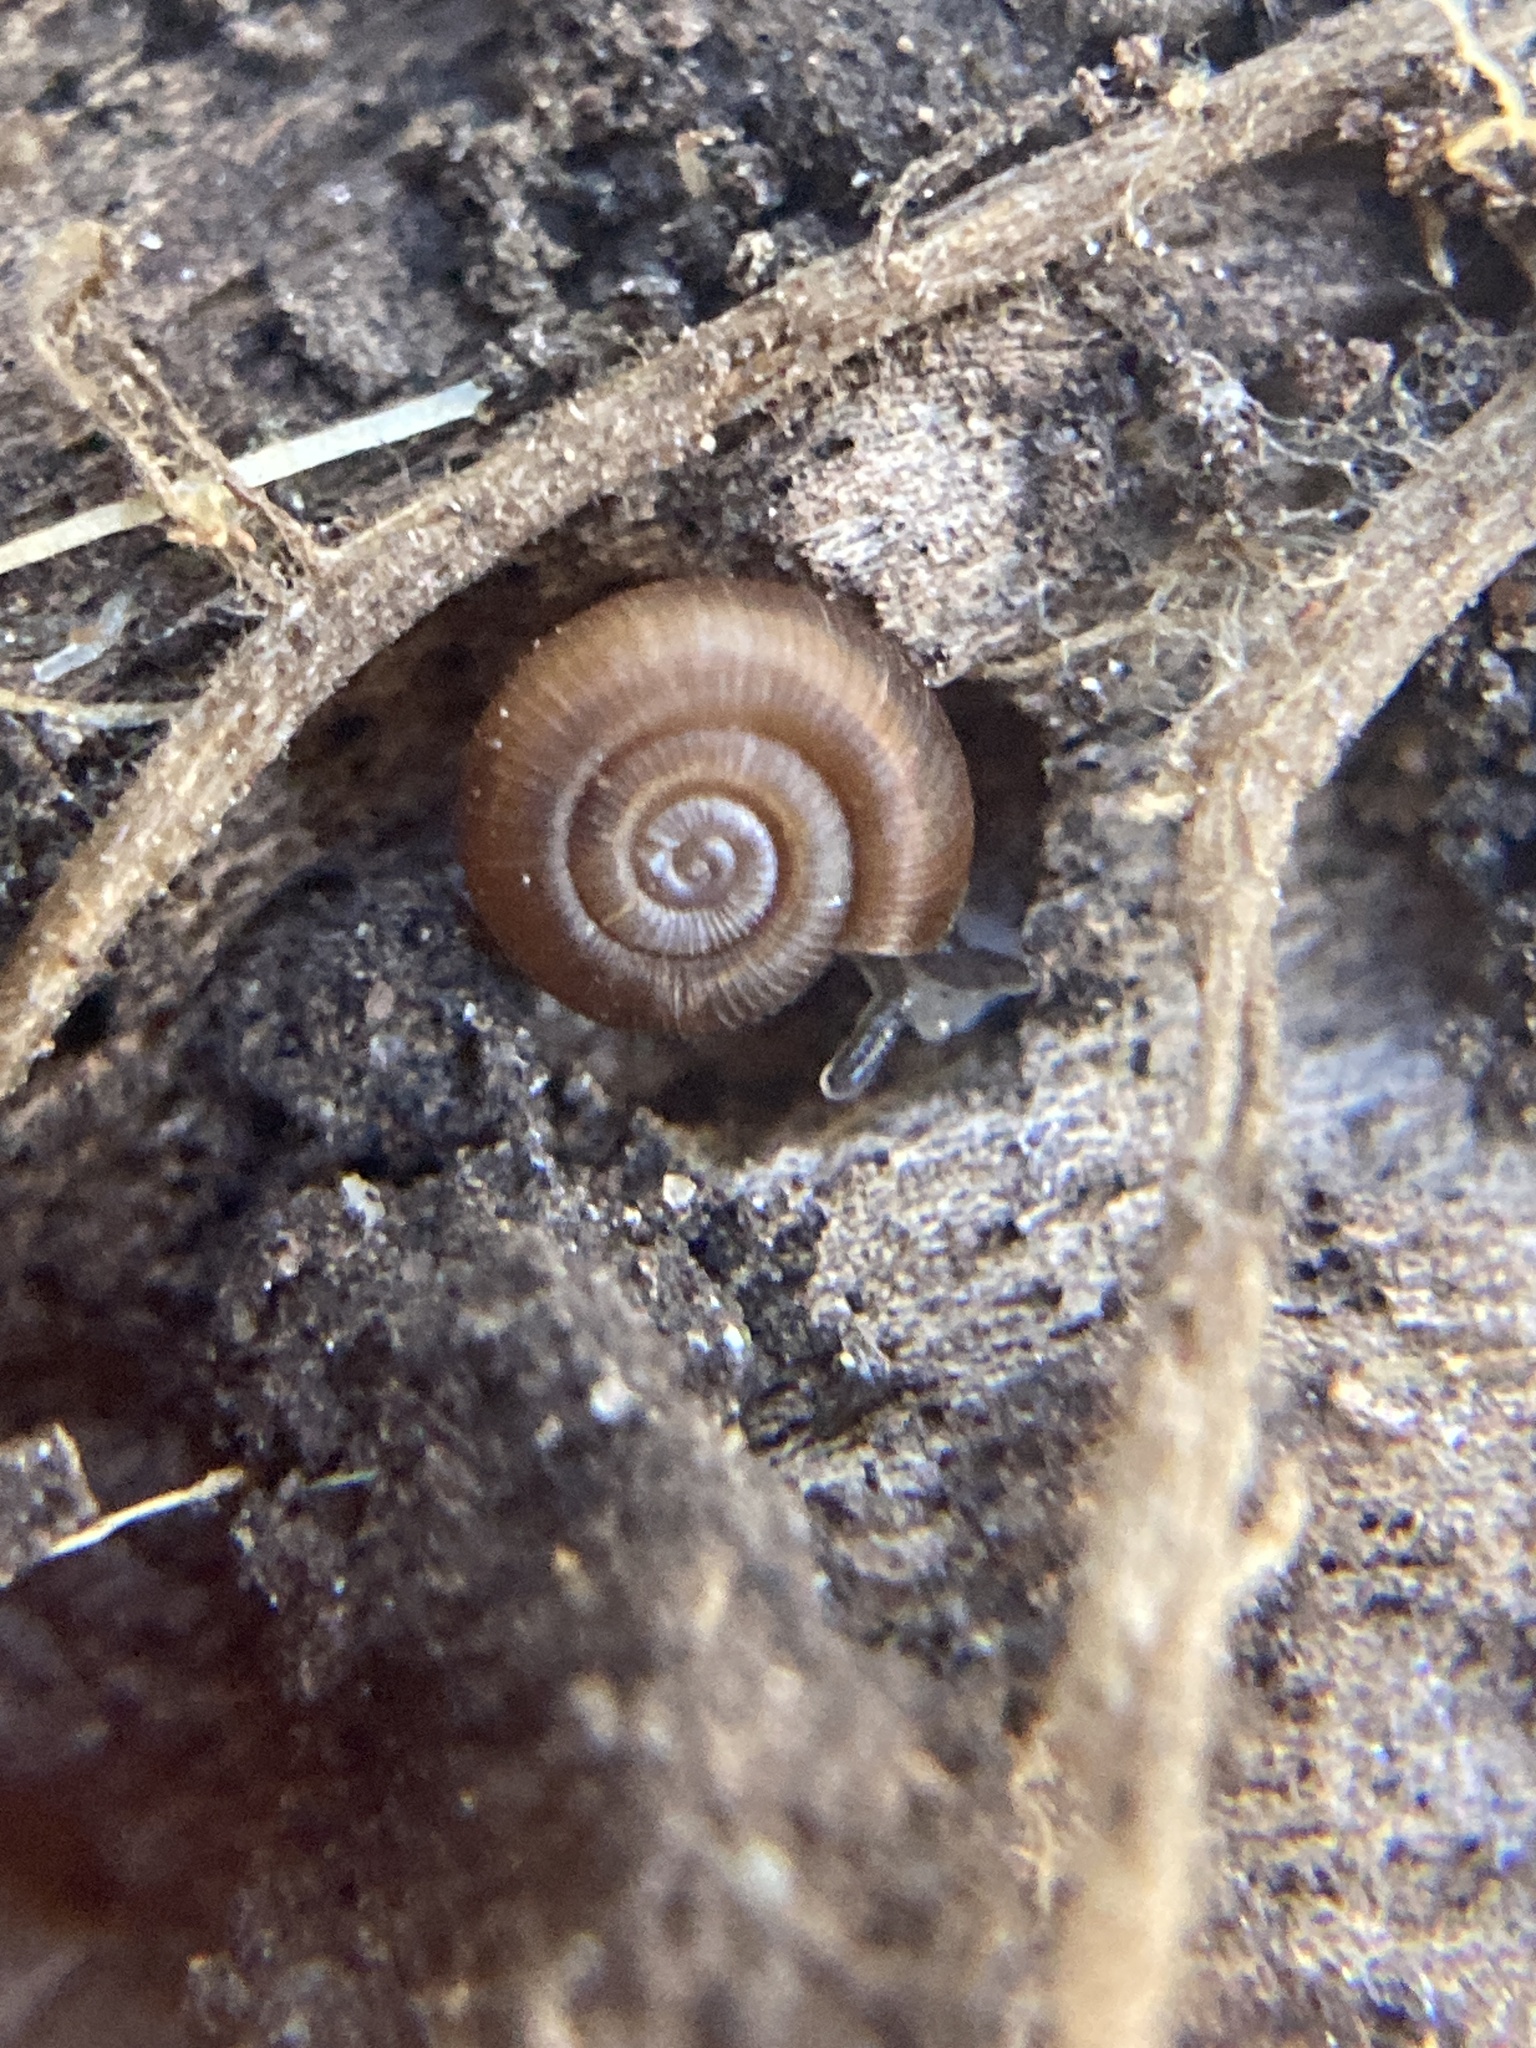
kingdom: Animalia
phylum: Mollusca
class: Gastropoda
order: Stylommatophora
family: Charopidae
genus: Diphyoropa
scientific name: Diphyoropa saturni
